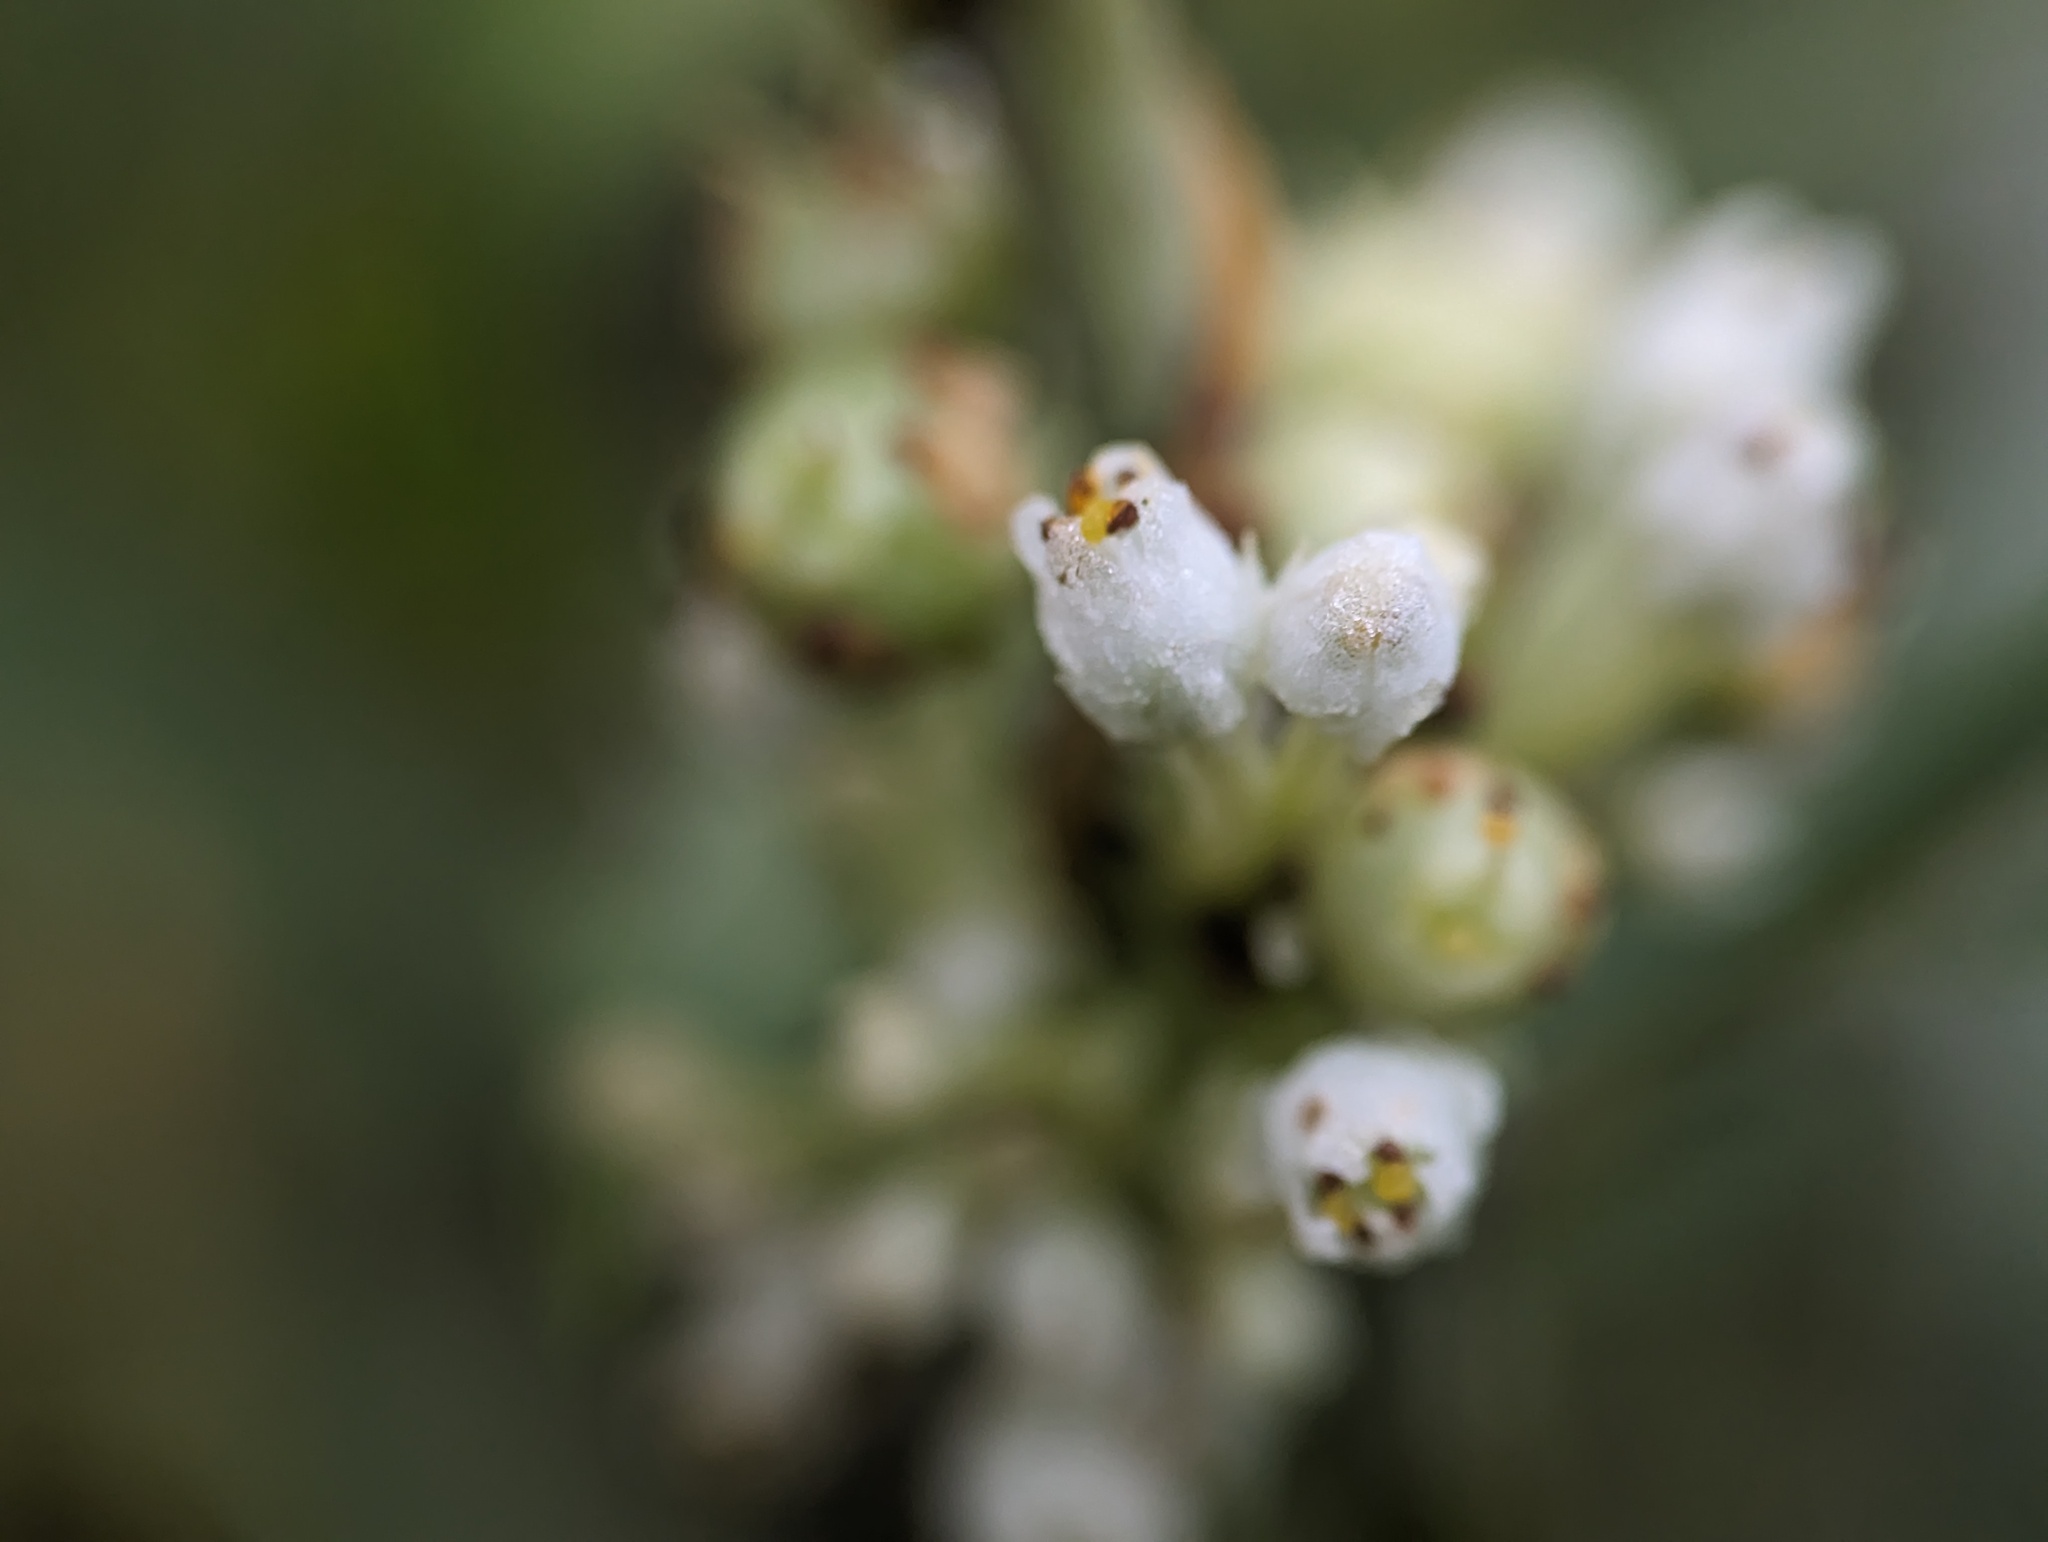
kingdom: Plantae
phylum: Tracheophyta
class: Magnoliopsida
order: Solanales
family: Convolvulaceae
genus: Cuscuta
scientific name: Cuscuta coryli
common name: Hazel dodder
